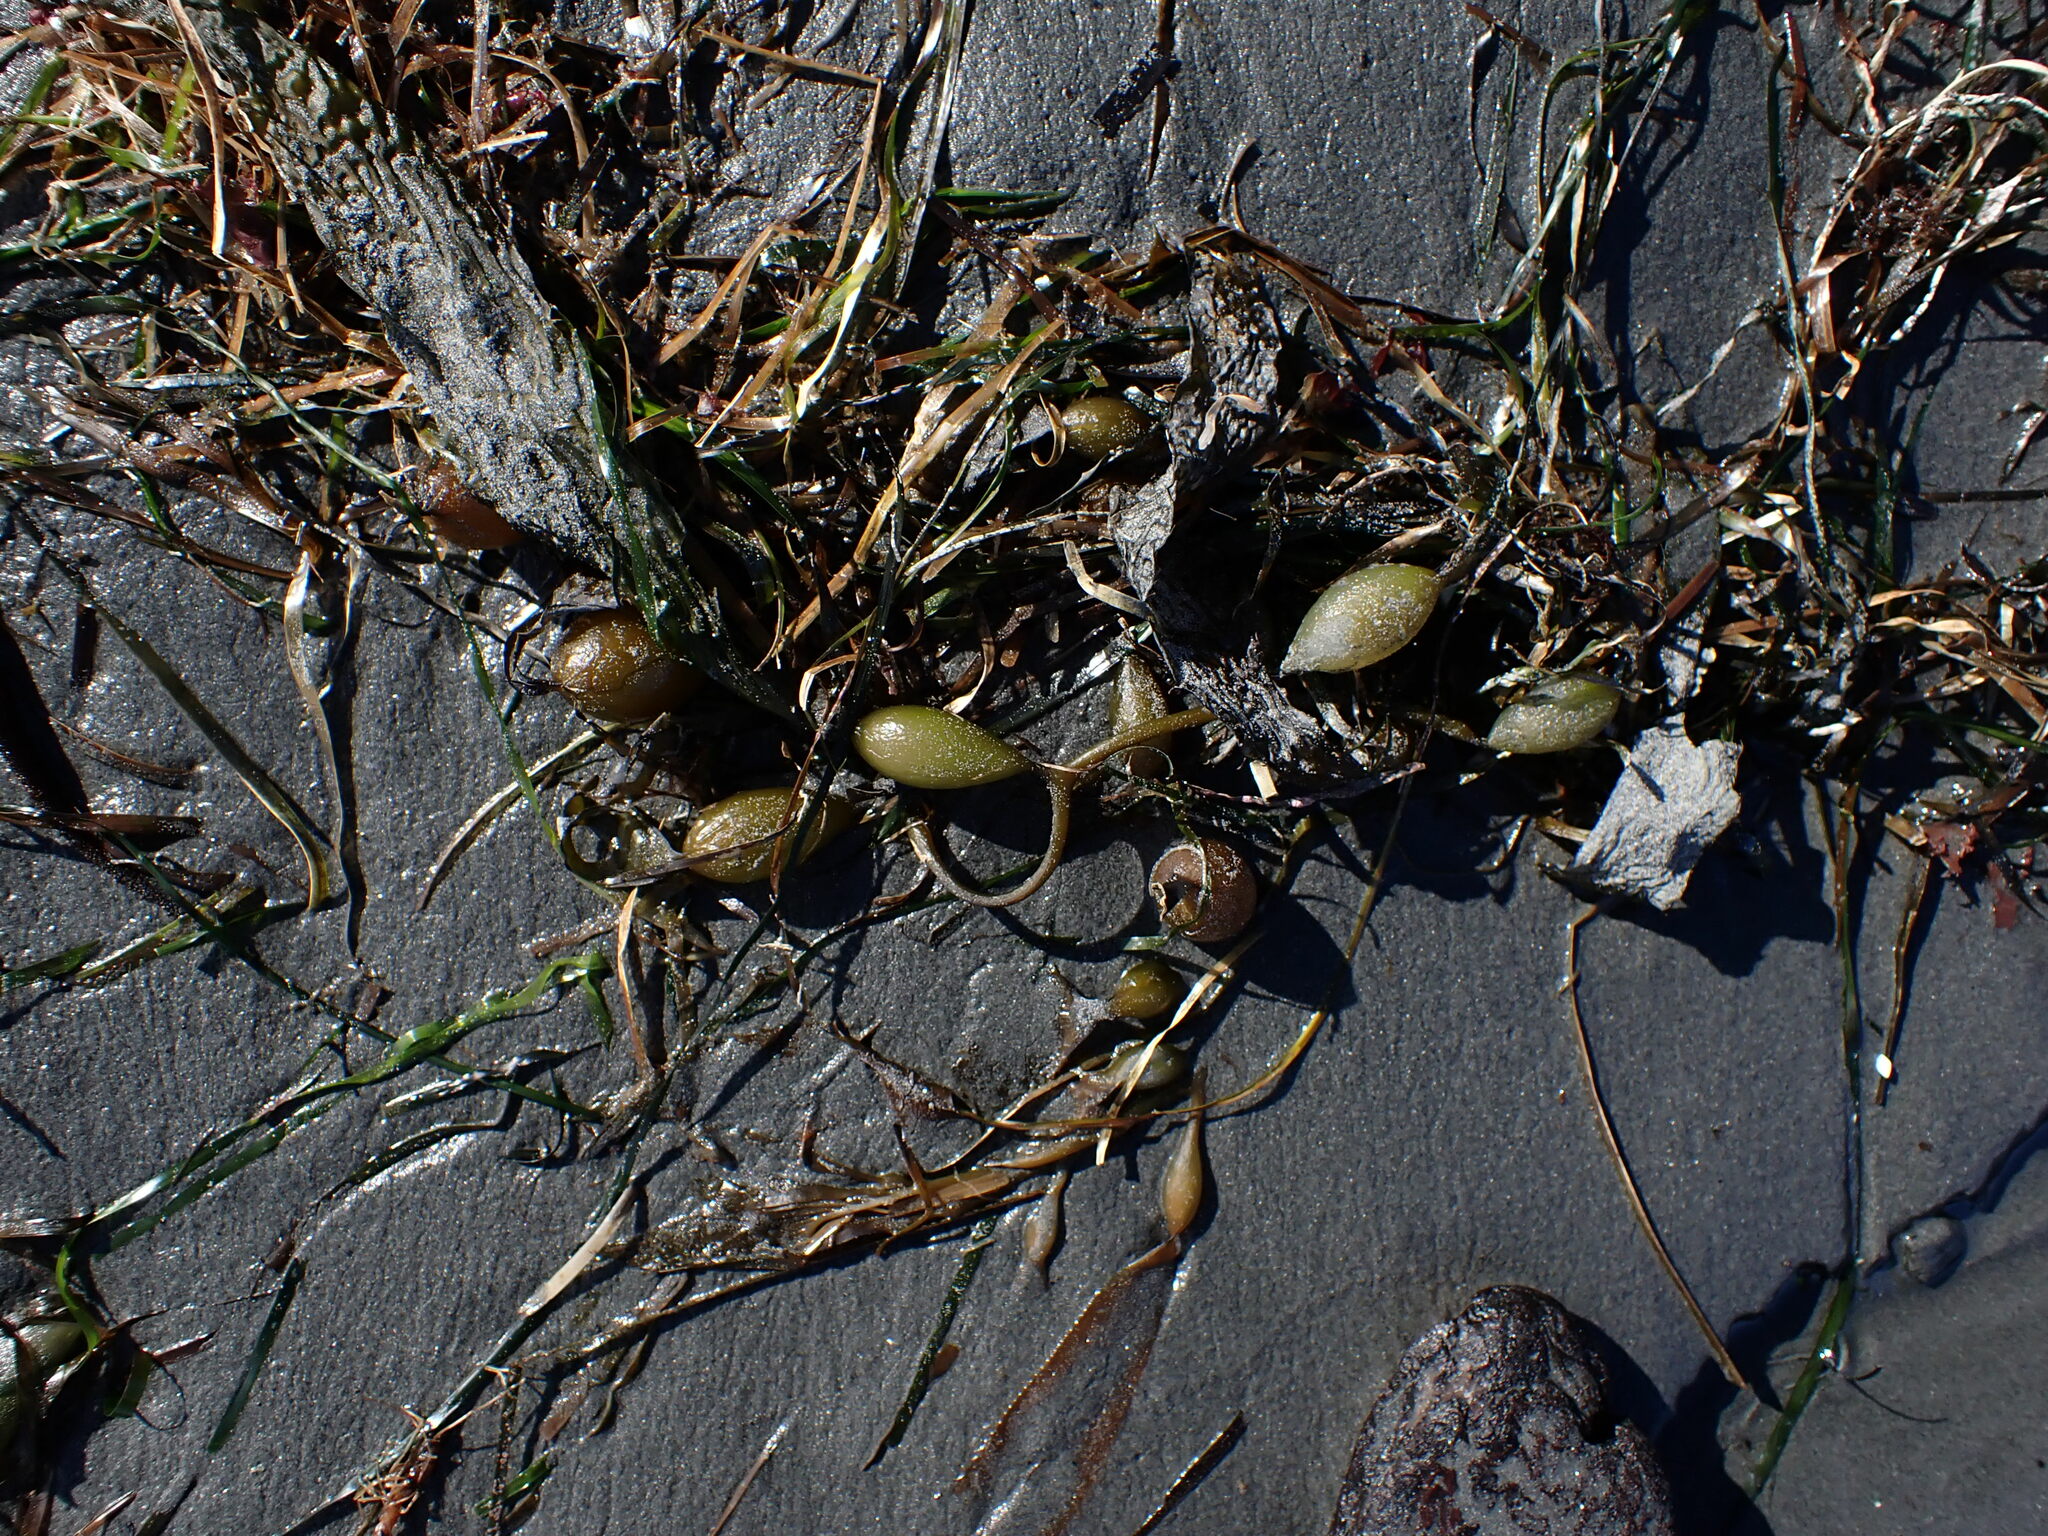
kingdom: Chromista
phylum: Ochrophyta
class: Phaeophyceae
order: Laminariales
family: Laminariaceae
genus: Macrocystis
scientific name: Macrocystis pyrifera
